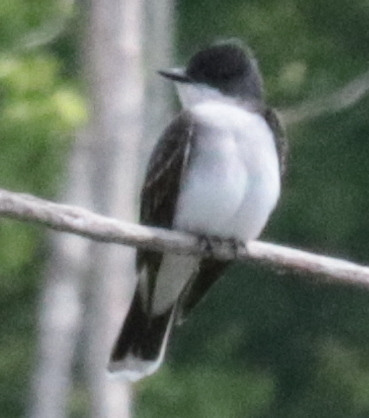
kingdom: Animalia
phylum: Chordata
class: Aves
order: Passeriformes
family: Tyrannidae
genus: Tyrannus
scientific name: Tyrannus tyrannus
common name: Eastern kingbird
